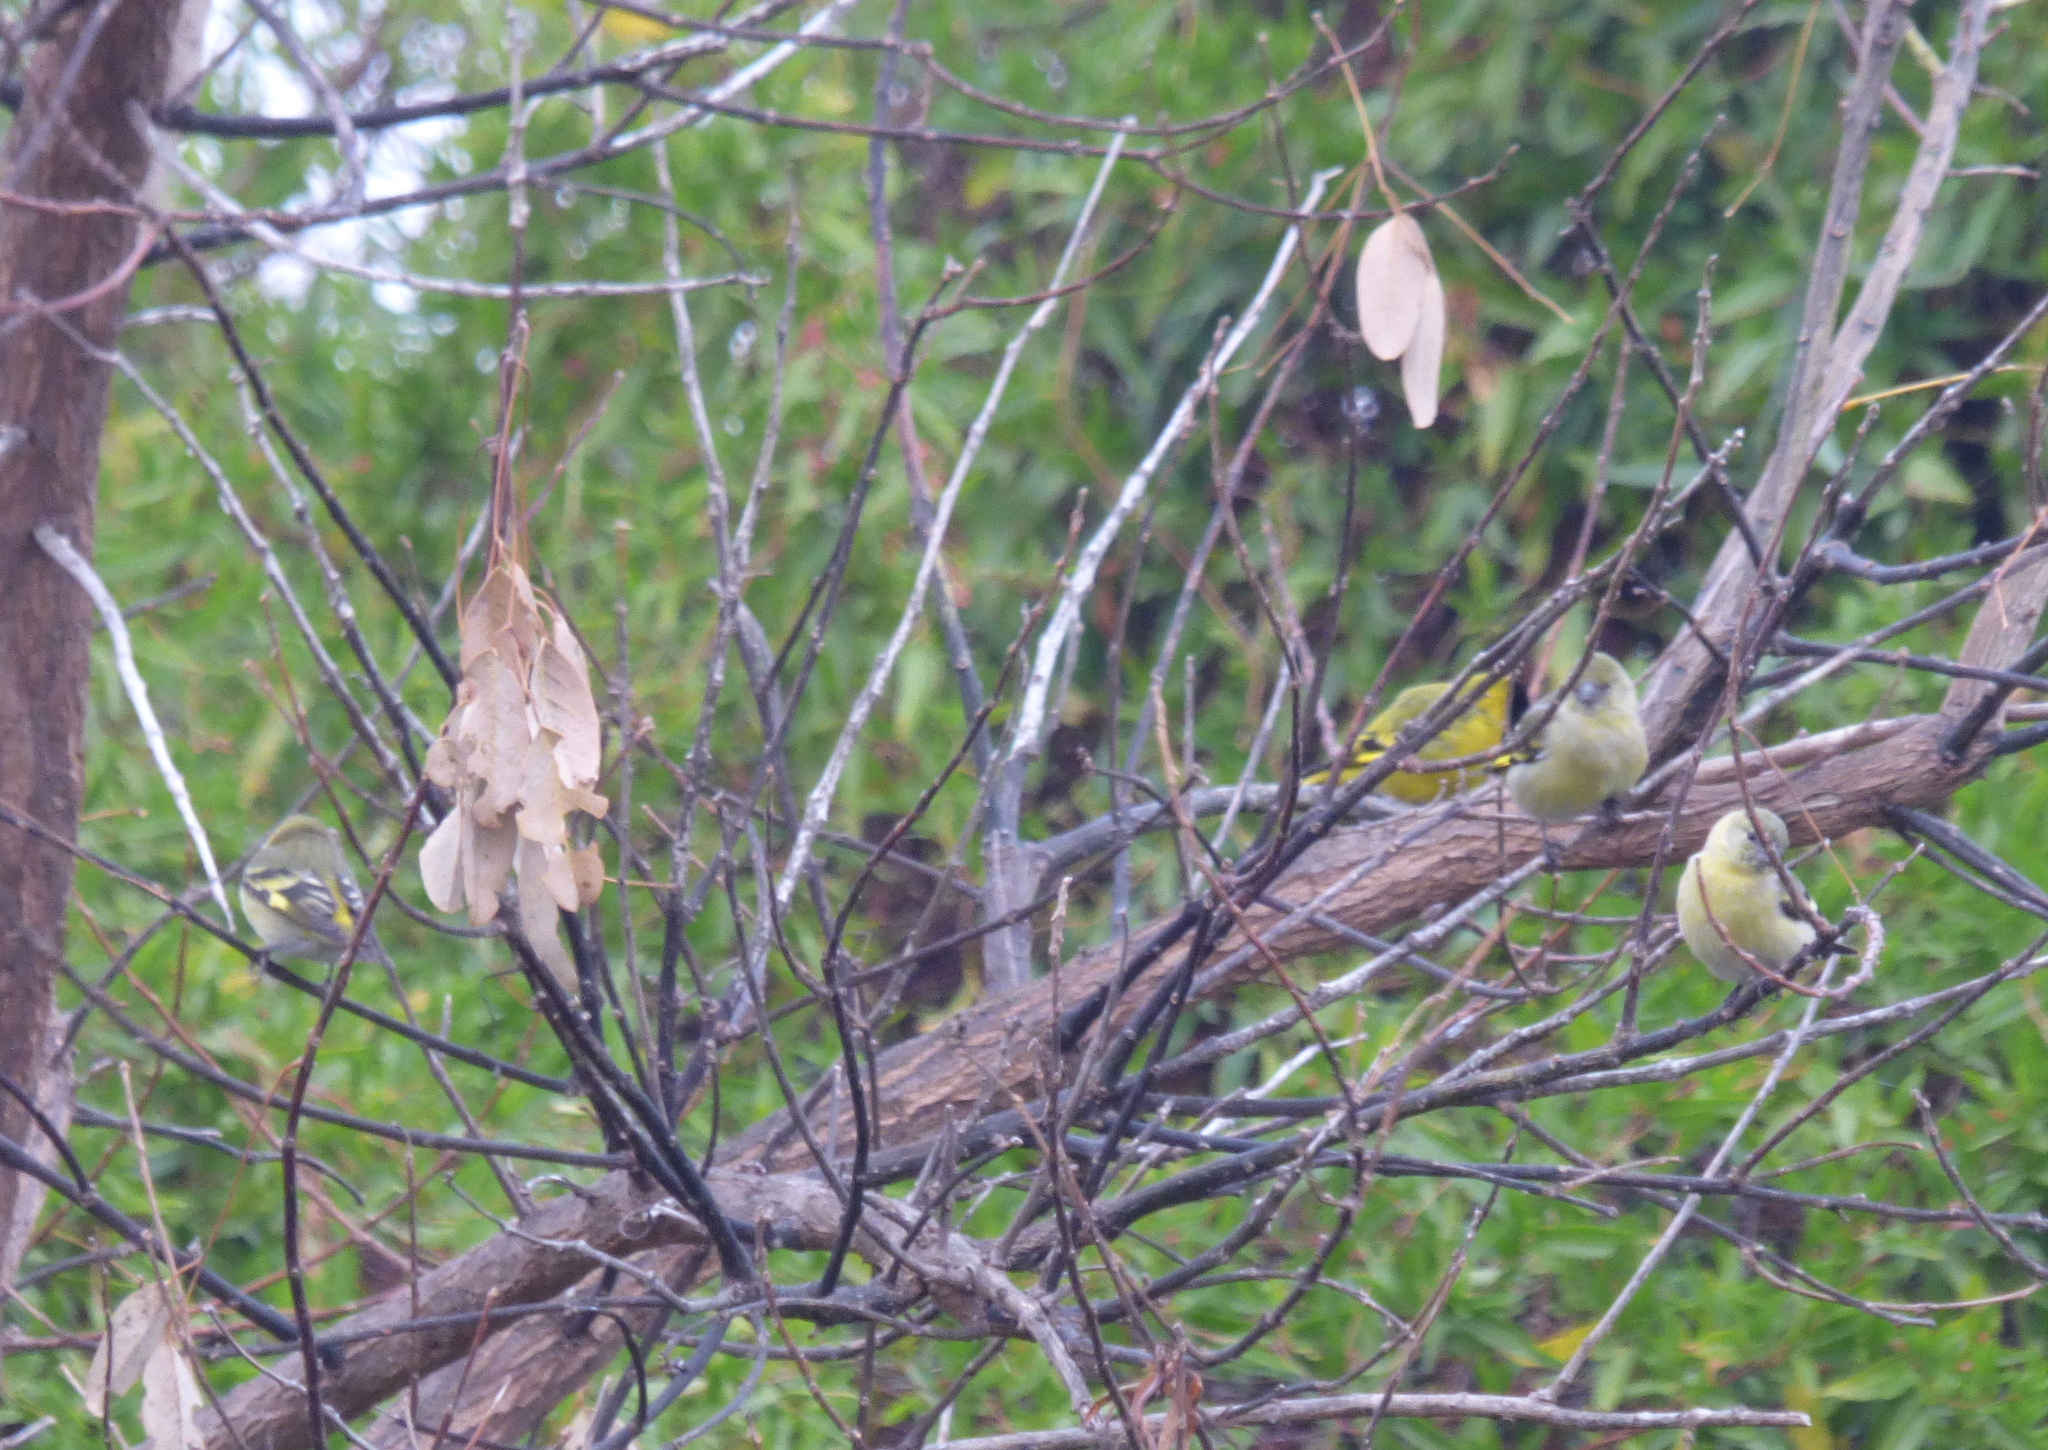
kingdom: Animalia
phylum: Chordata
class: Aves
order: Passeriformes
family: Fringillidae
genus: Spinus
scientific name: Spinus magellanicus
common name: Hooded siskin
